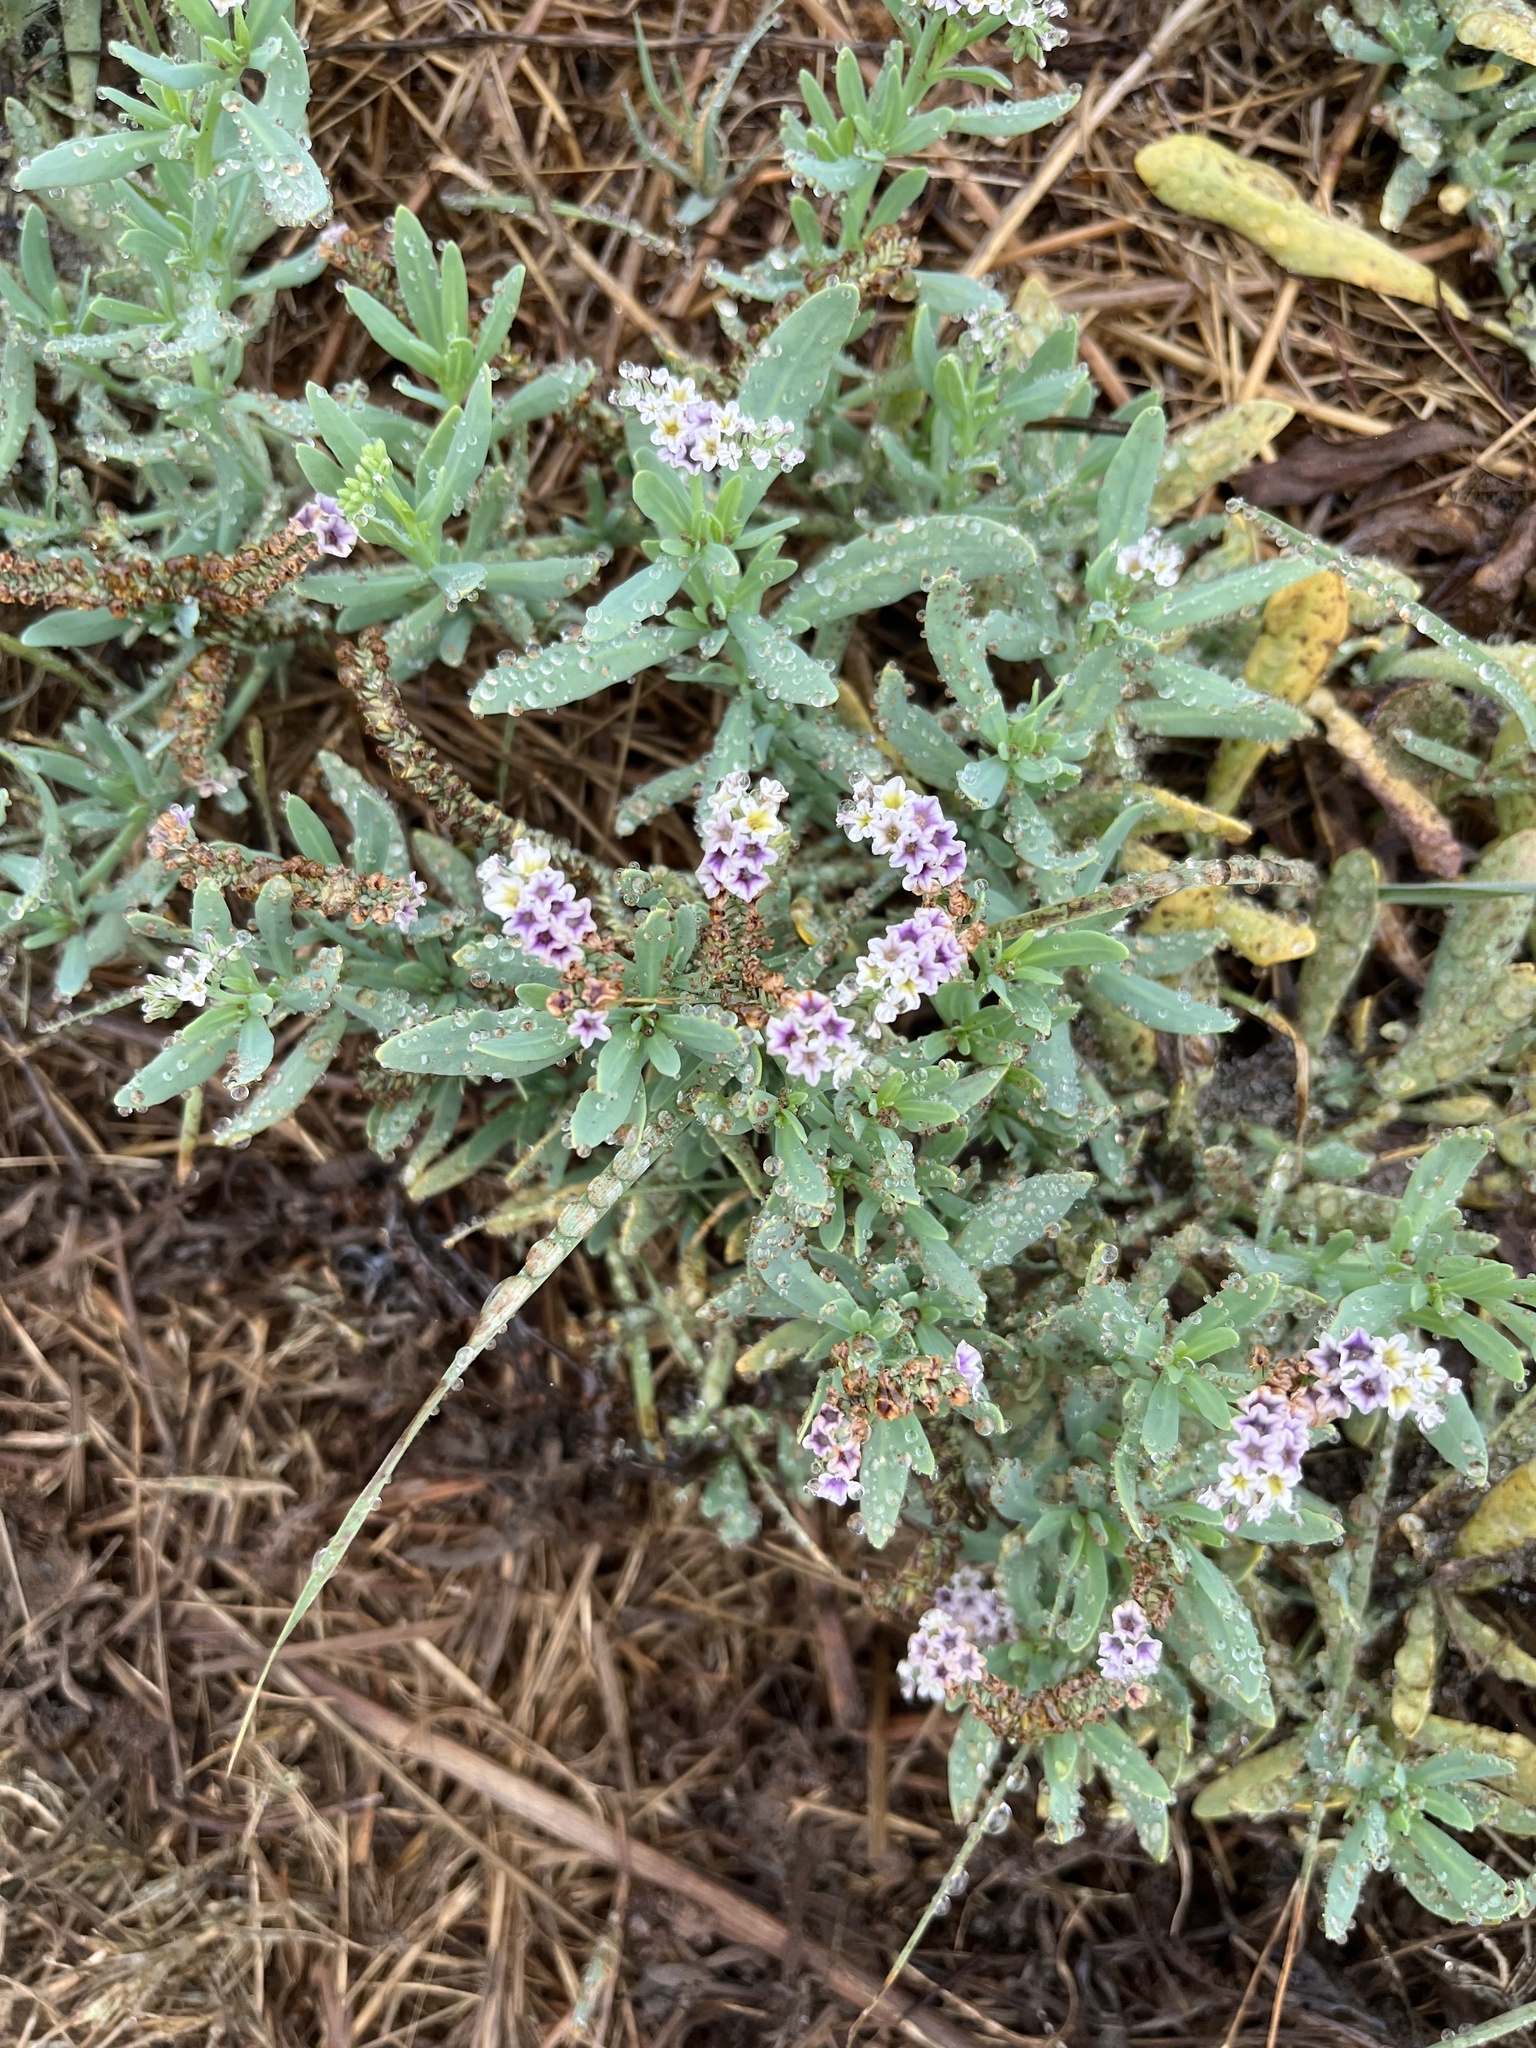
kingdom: Plantae
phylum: Tracheophyta
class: Magnoliopsida
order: Boraginales
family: Heliotropiaceae
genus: Heliotropium
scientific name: Heliotropium curassavicum
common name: Seaside heliotrope
